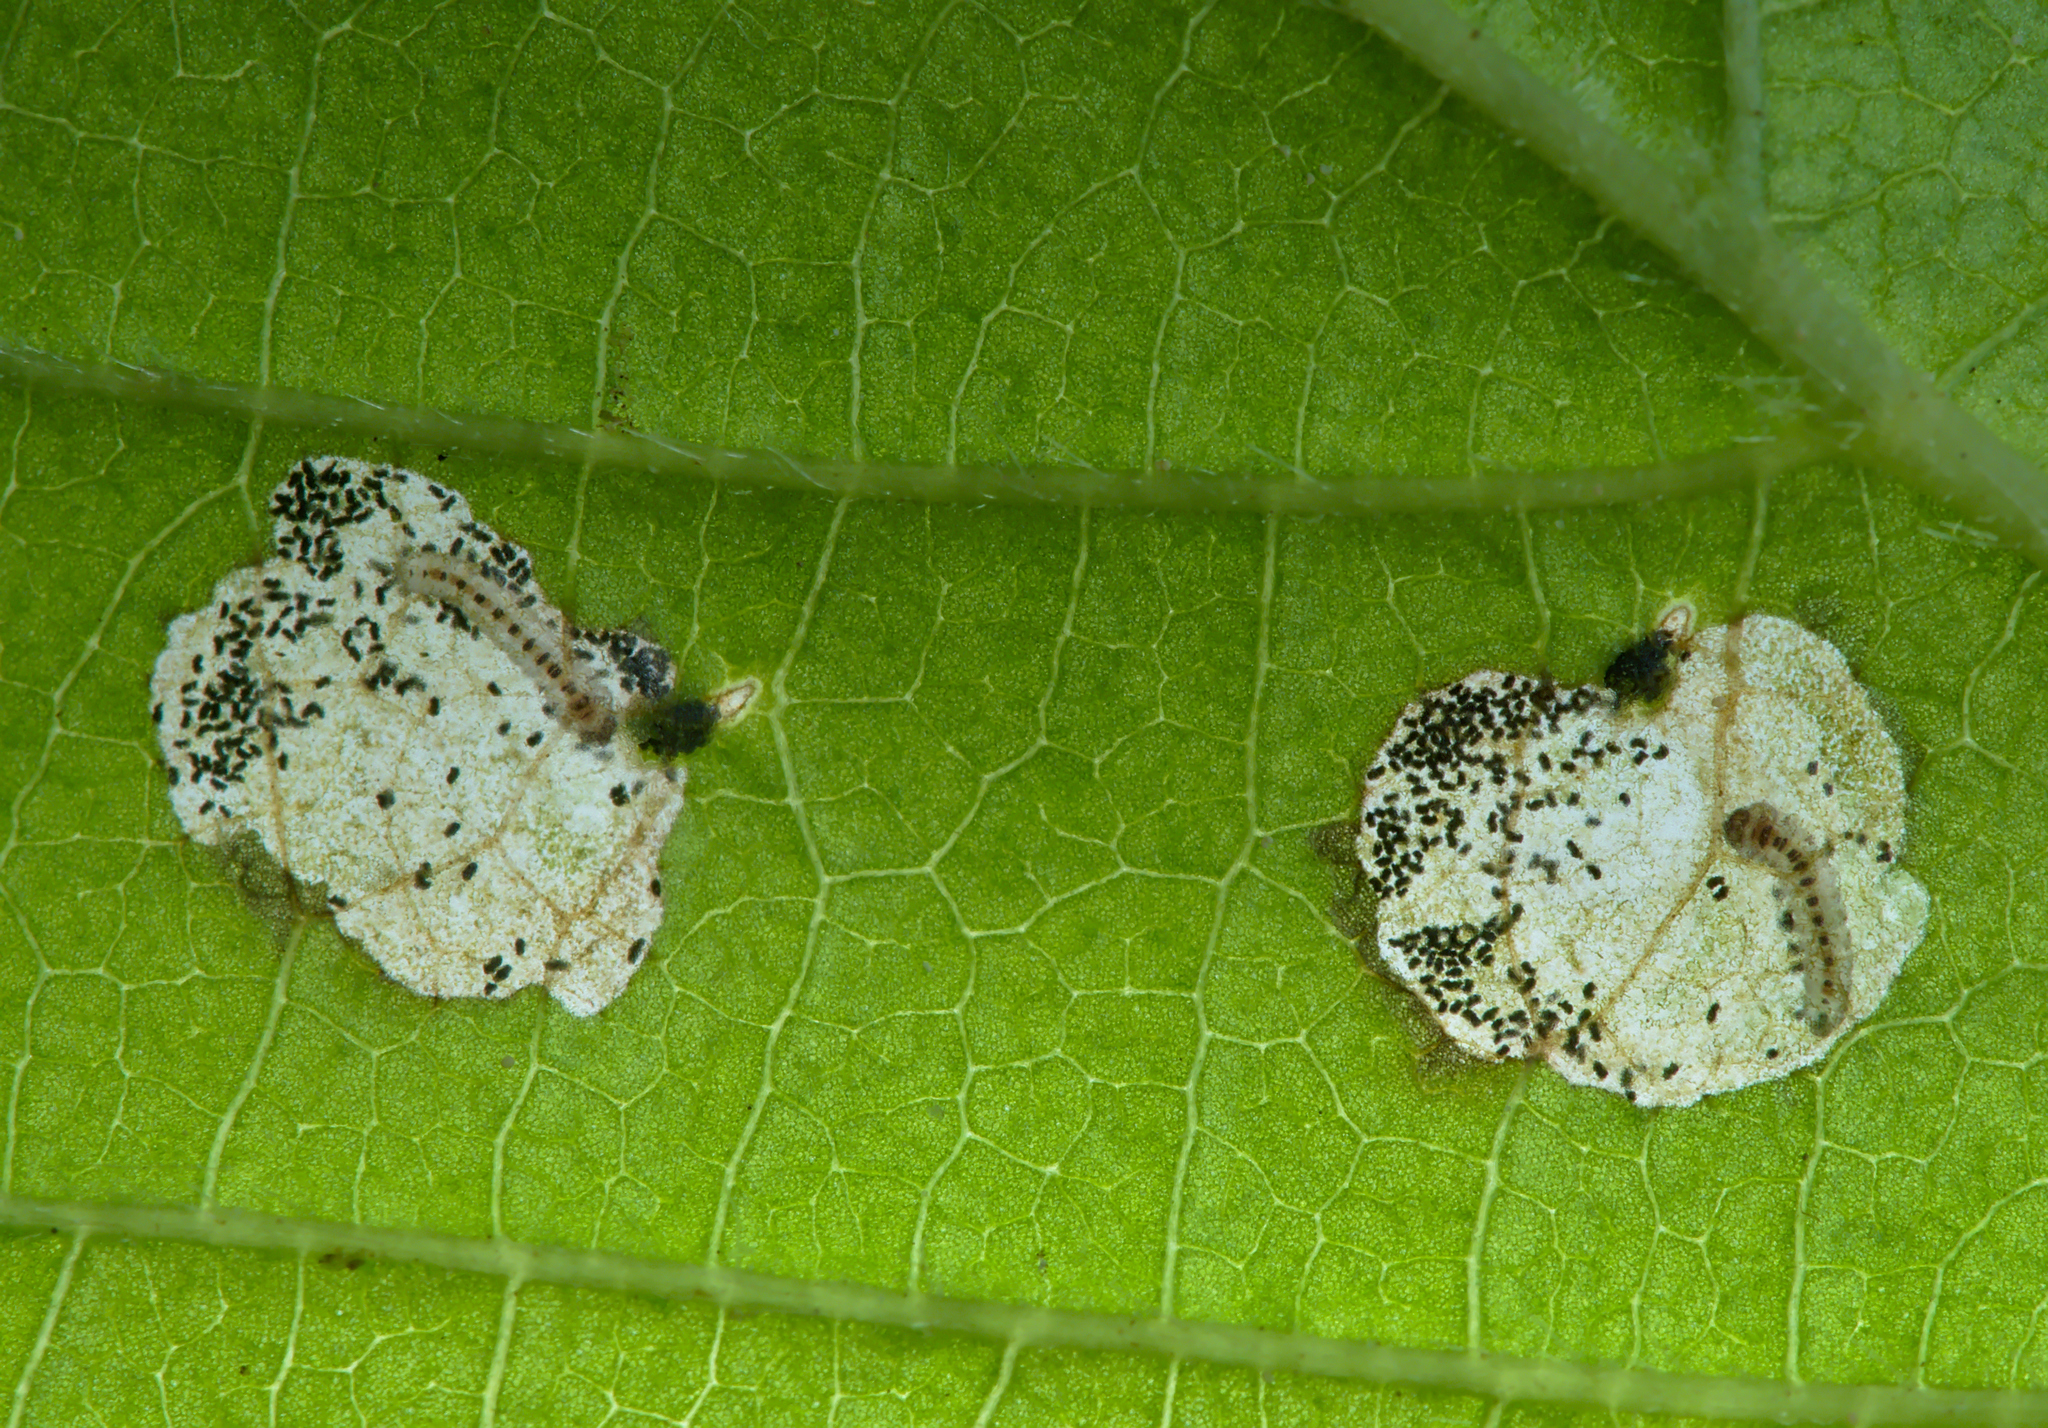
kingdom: Animalia
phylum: Arthropoda
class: Insecta
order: Lepidoptera
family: Incurvariidae
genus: Incurvaria
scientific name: Incurvaria pectinea
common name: Pale feathered leaf-cutter
